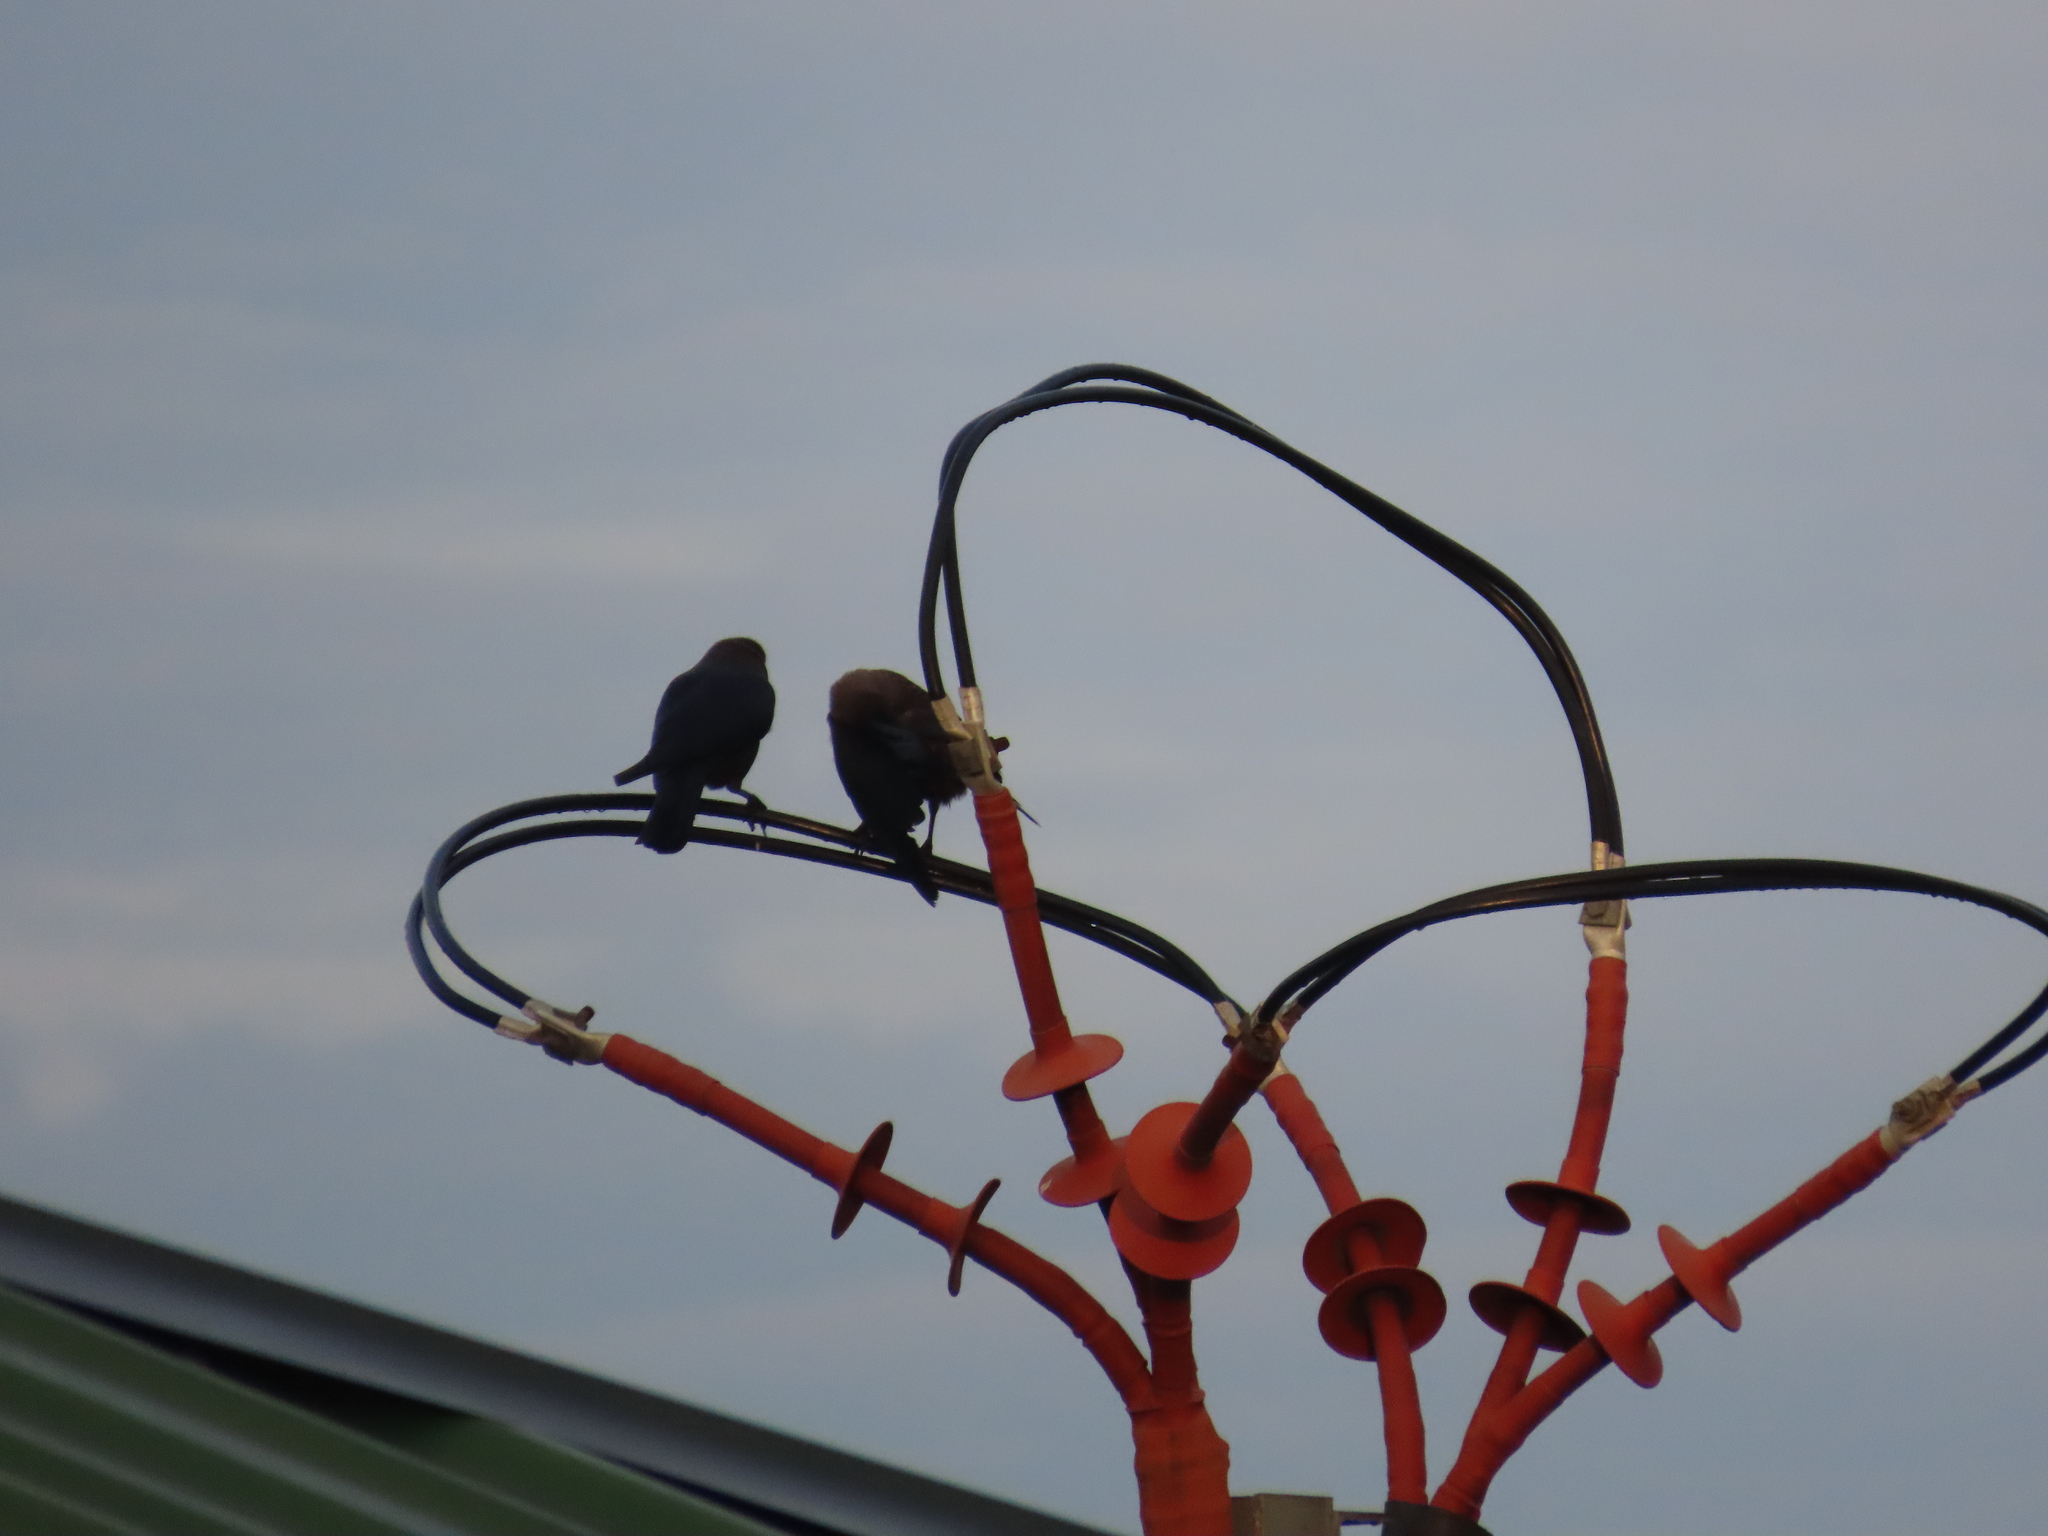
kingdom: Animalia
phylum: Chordata
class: Aves
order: Passeriformes
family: Corvidae
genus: Corvus
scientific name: Corvus splendens
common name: House crow
